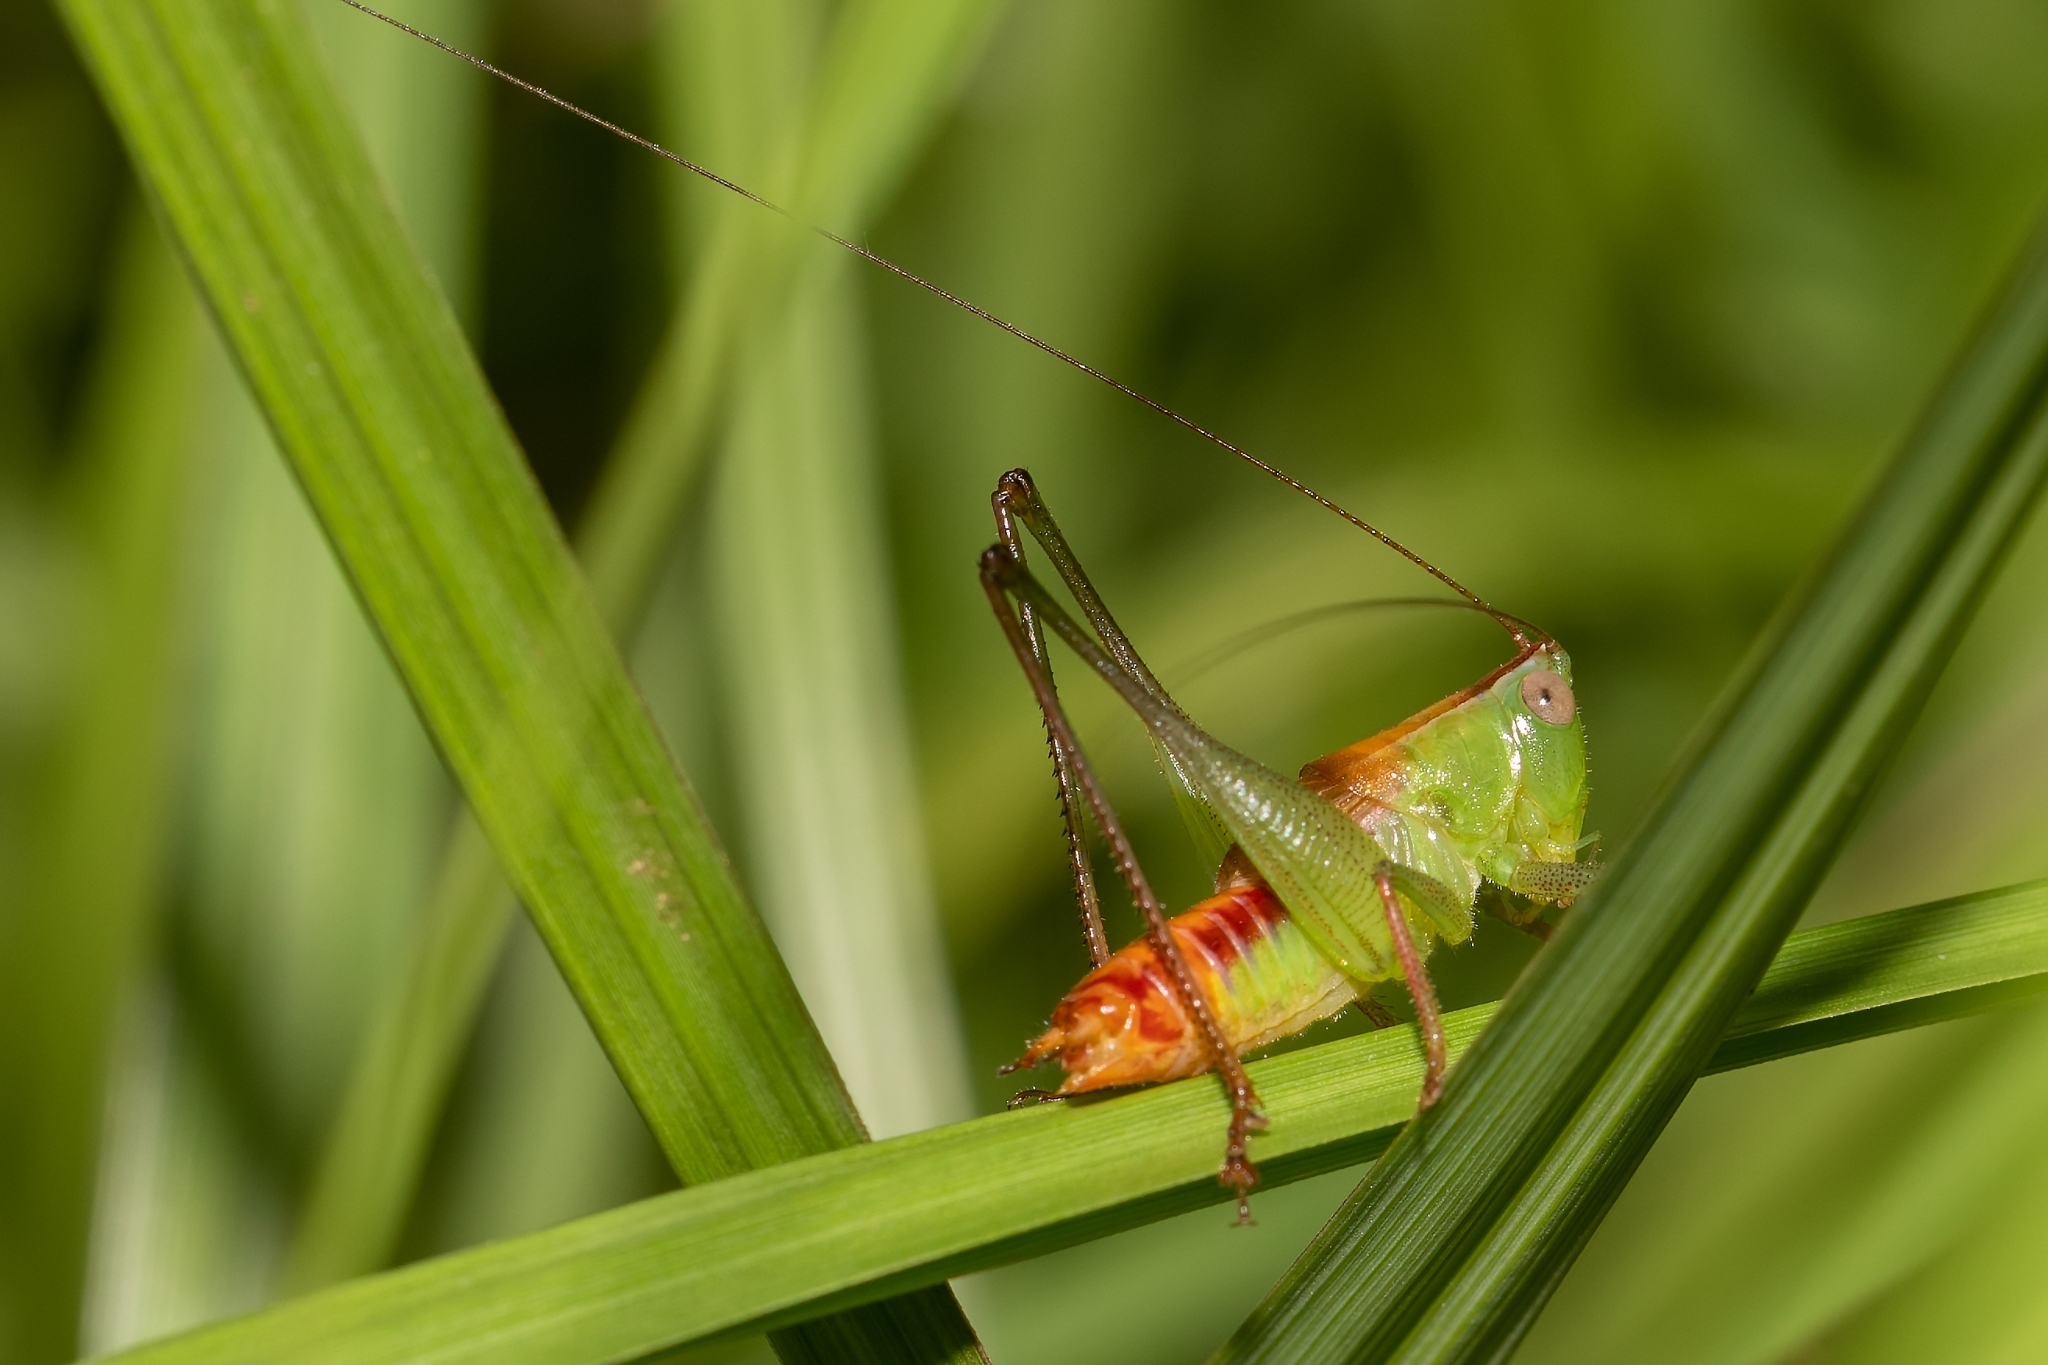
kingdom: Animalia
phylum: Arthropoda
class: Insecta
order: Orthoptera
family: Tettigoniidae
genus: Odontoxiphidium
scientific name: Odontoxiphidium apterum
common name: Wingless meadow katydid
